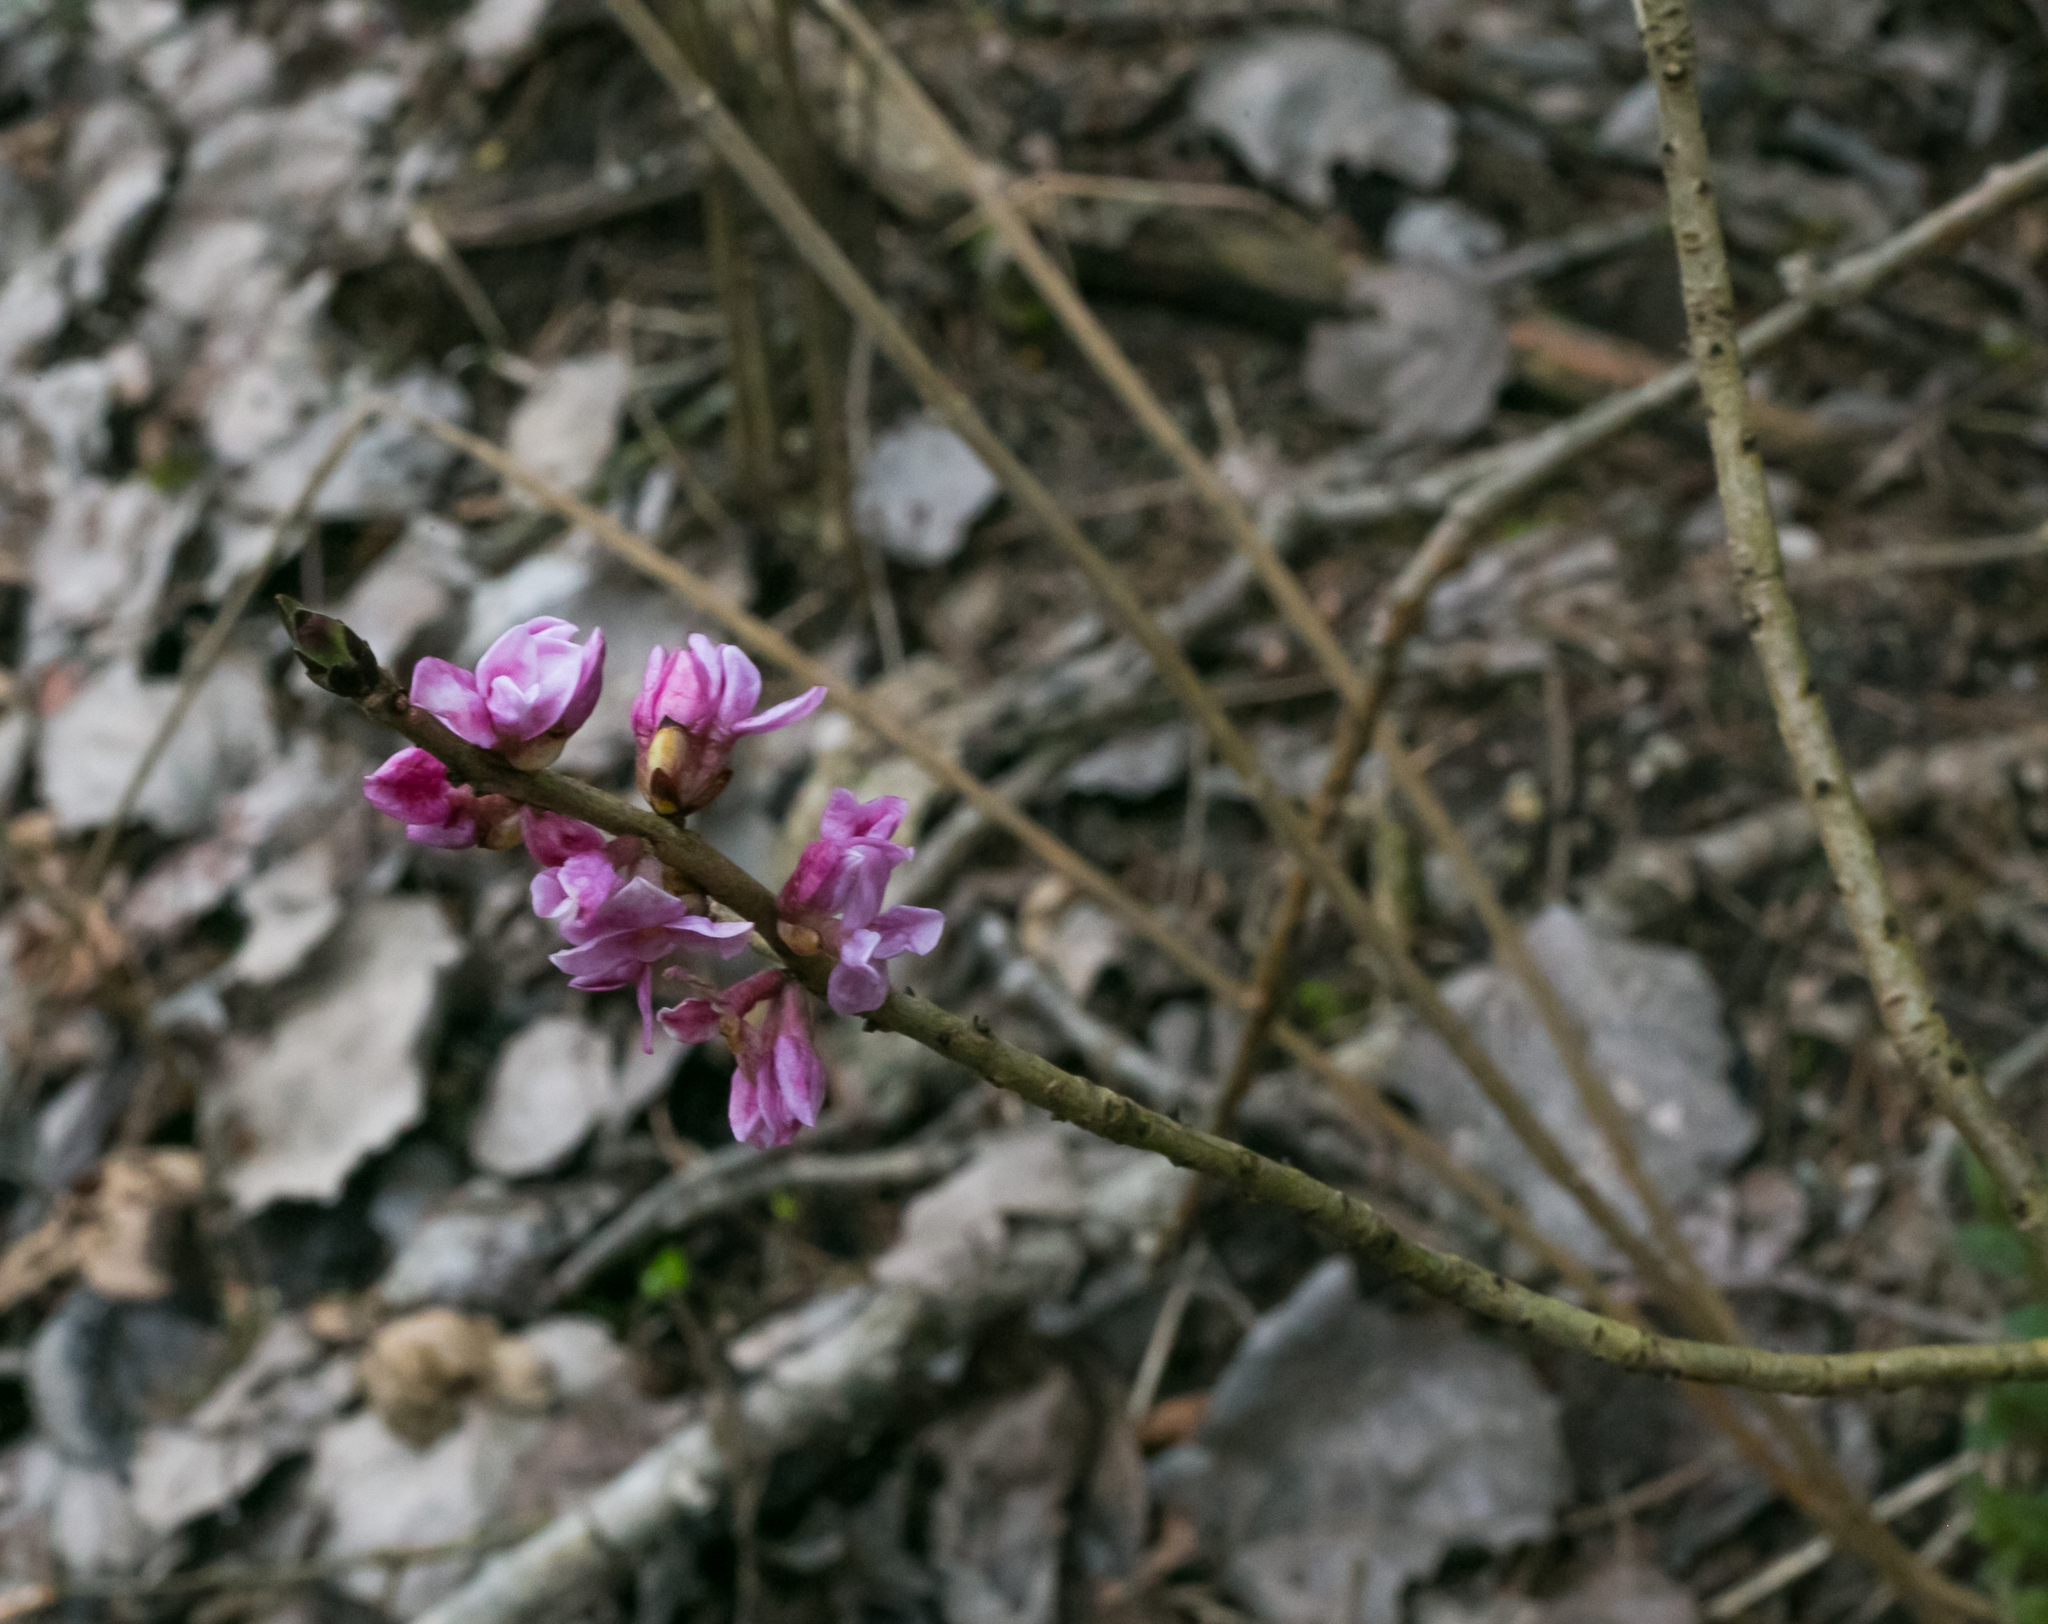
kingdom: Plantae
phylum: Tracheophyta
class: Magnoliopsida
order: Malvales
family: Thymelaeaceae
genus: Daphne
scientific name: Daphne mezereum
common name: Mezereon
